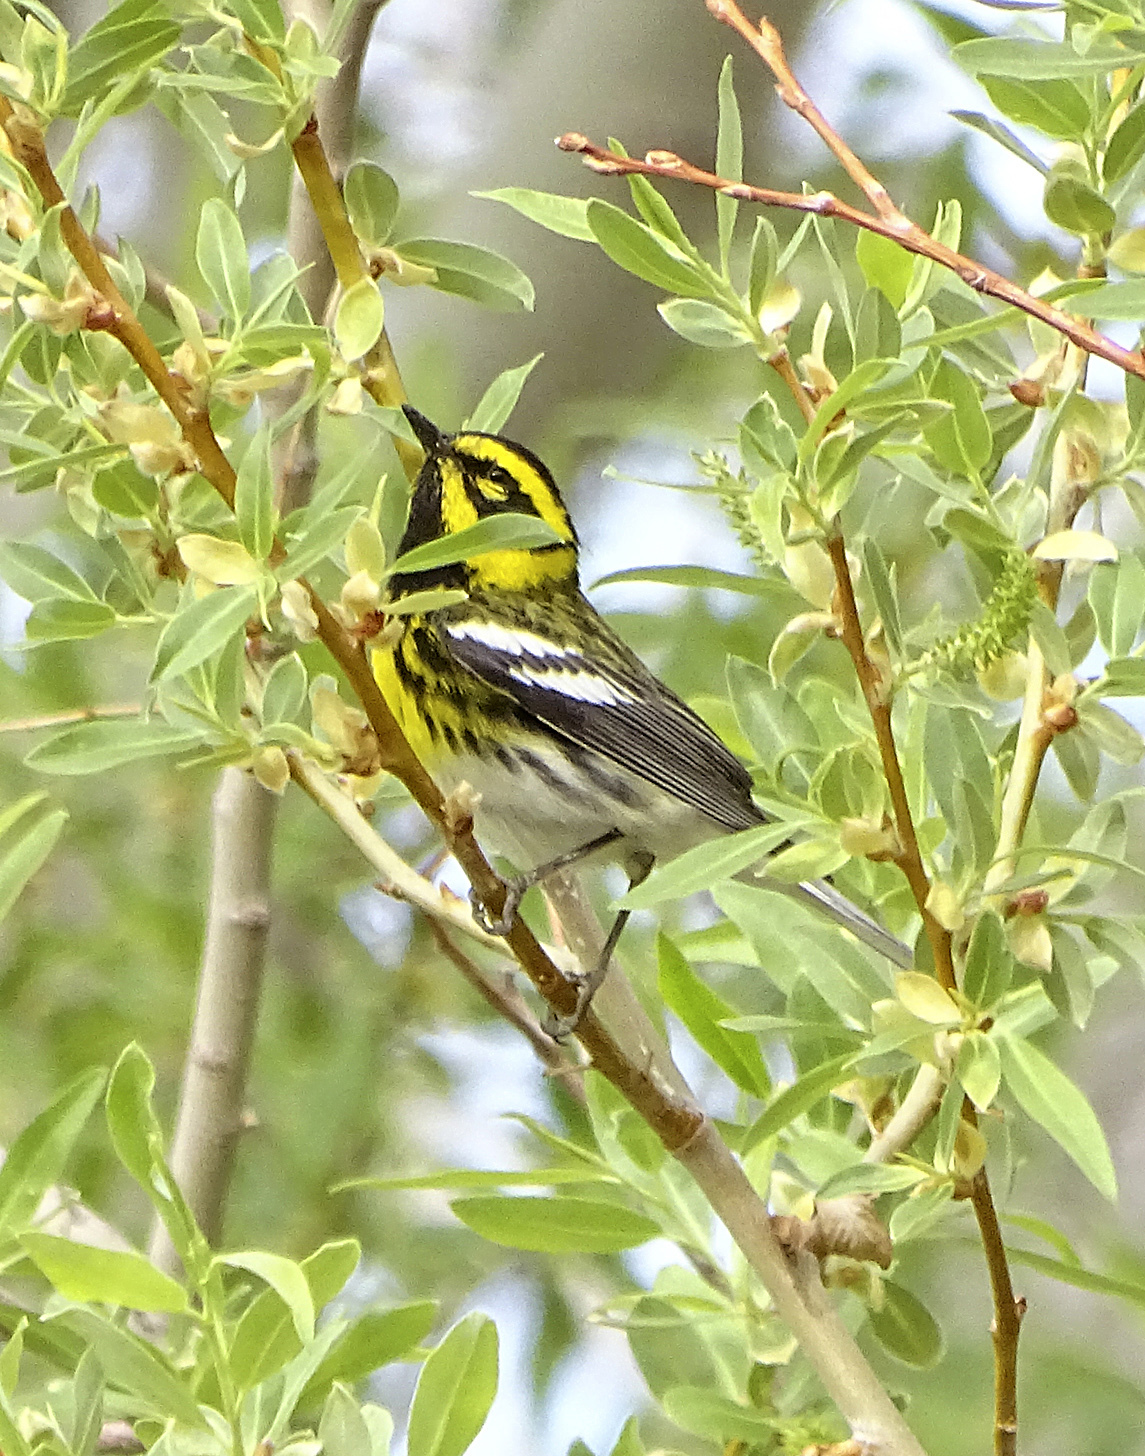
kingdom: Animalia
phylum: Chordata
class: Aves
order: Passeriformes
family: Parulidae
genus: Setophaga
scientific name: Setophaga townsendi
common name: Townsend's warbler
